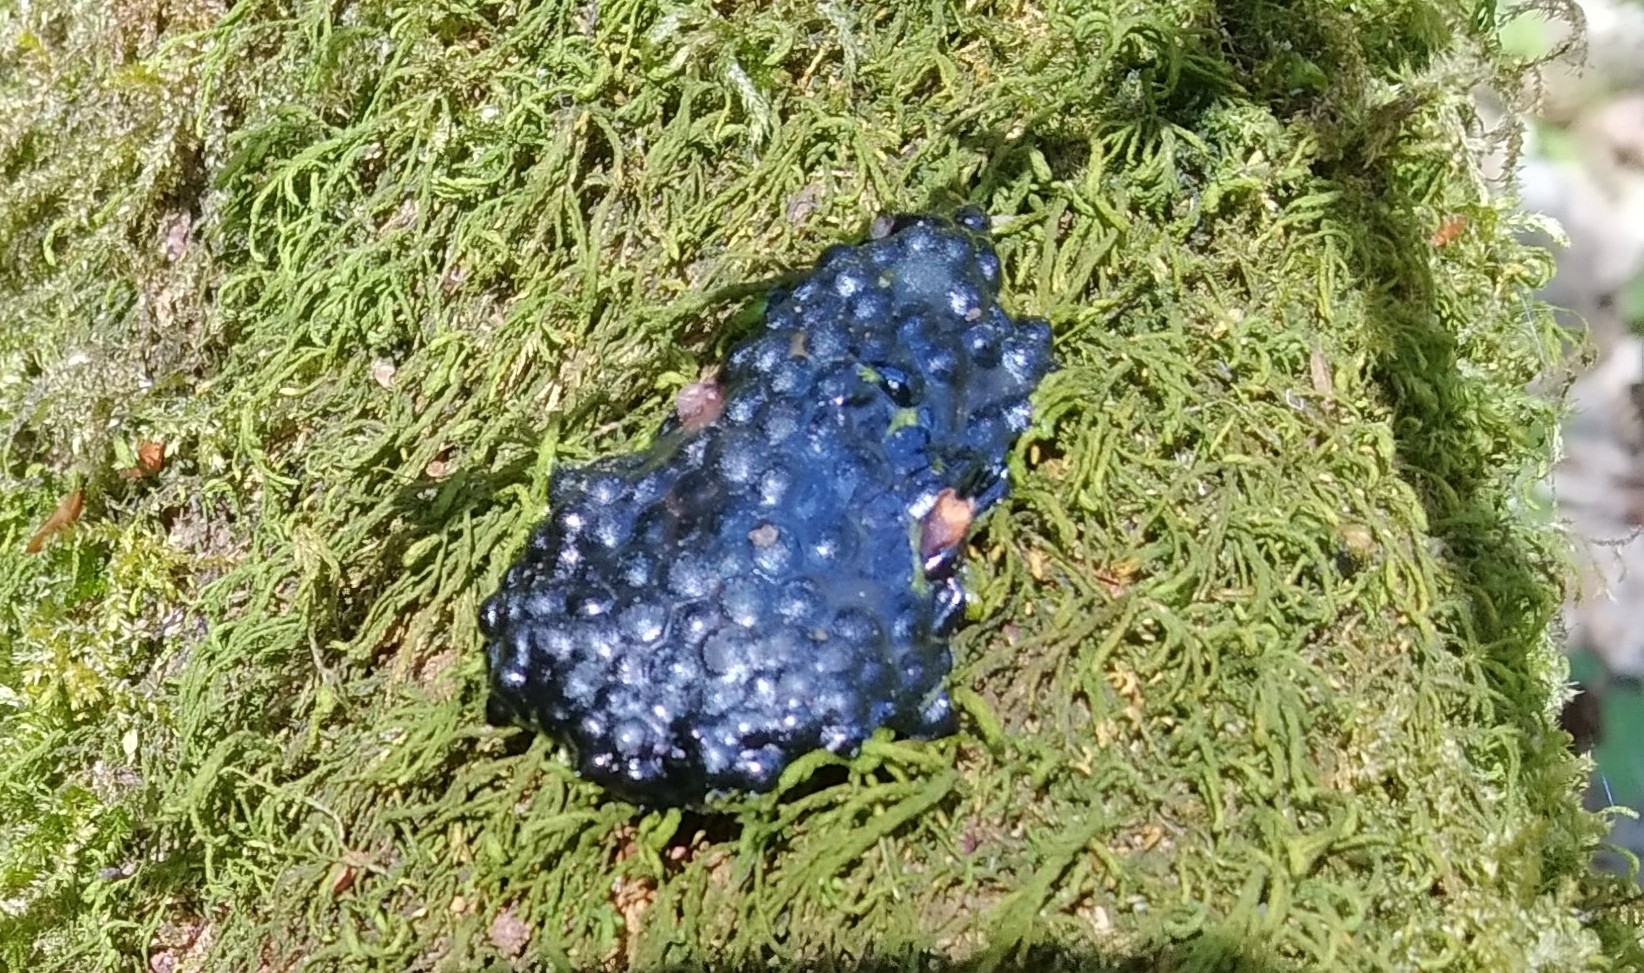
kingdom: Animalia
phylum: Chordata
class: Amphibia
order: Anura
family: Ranidae
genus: Rana
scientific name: Rana
